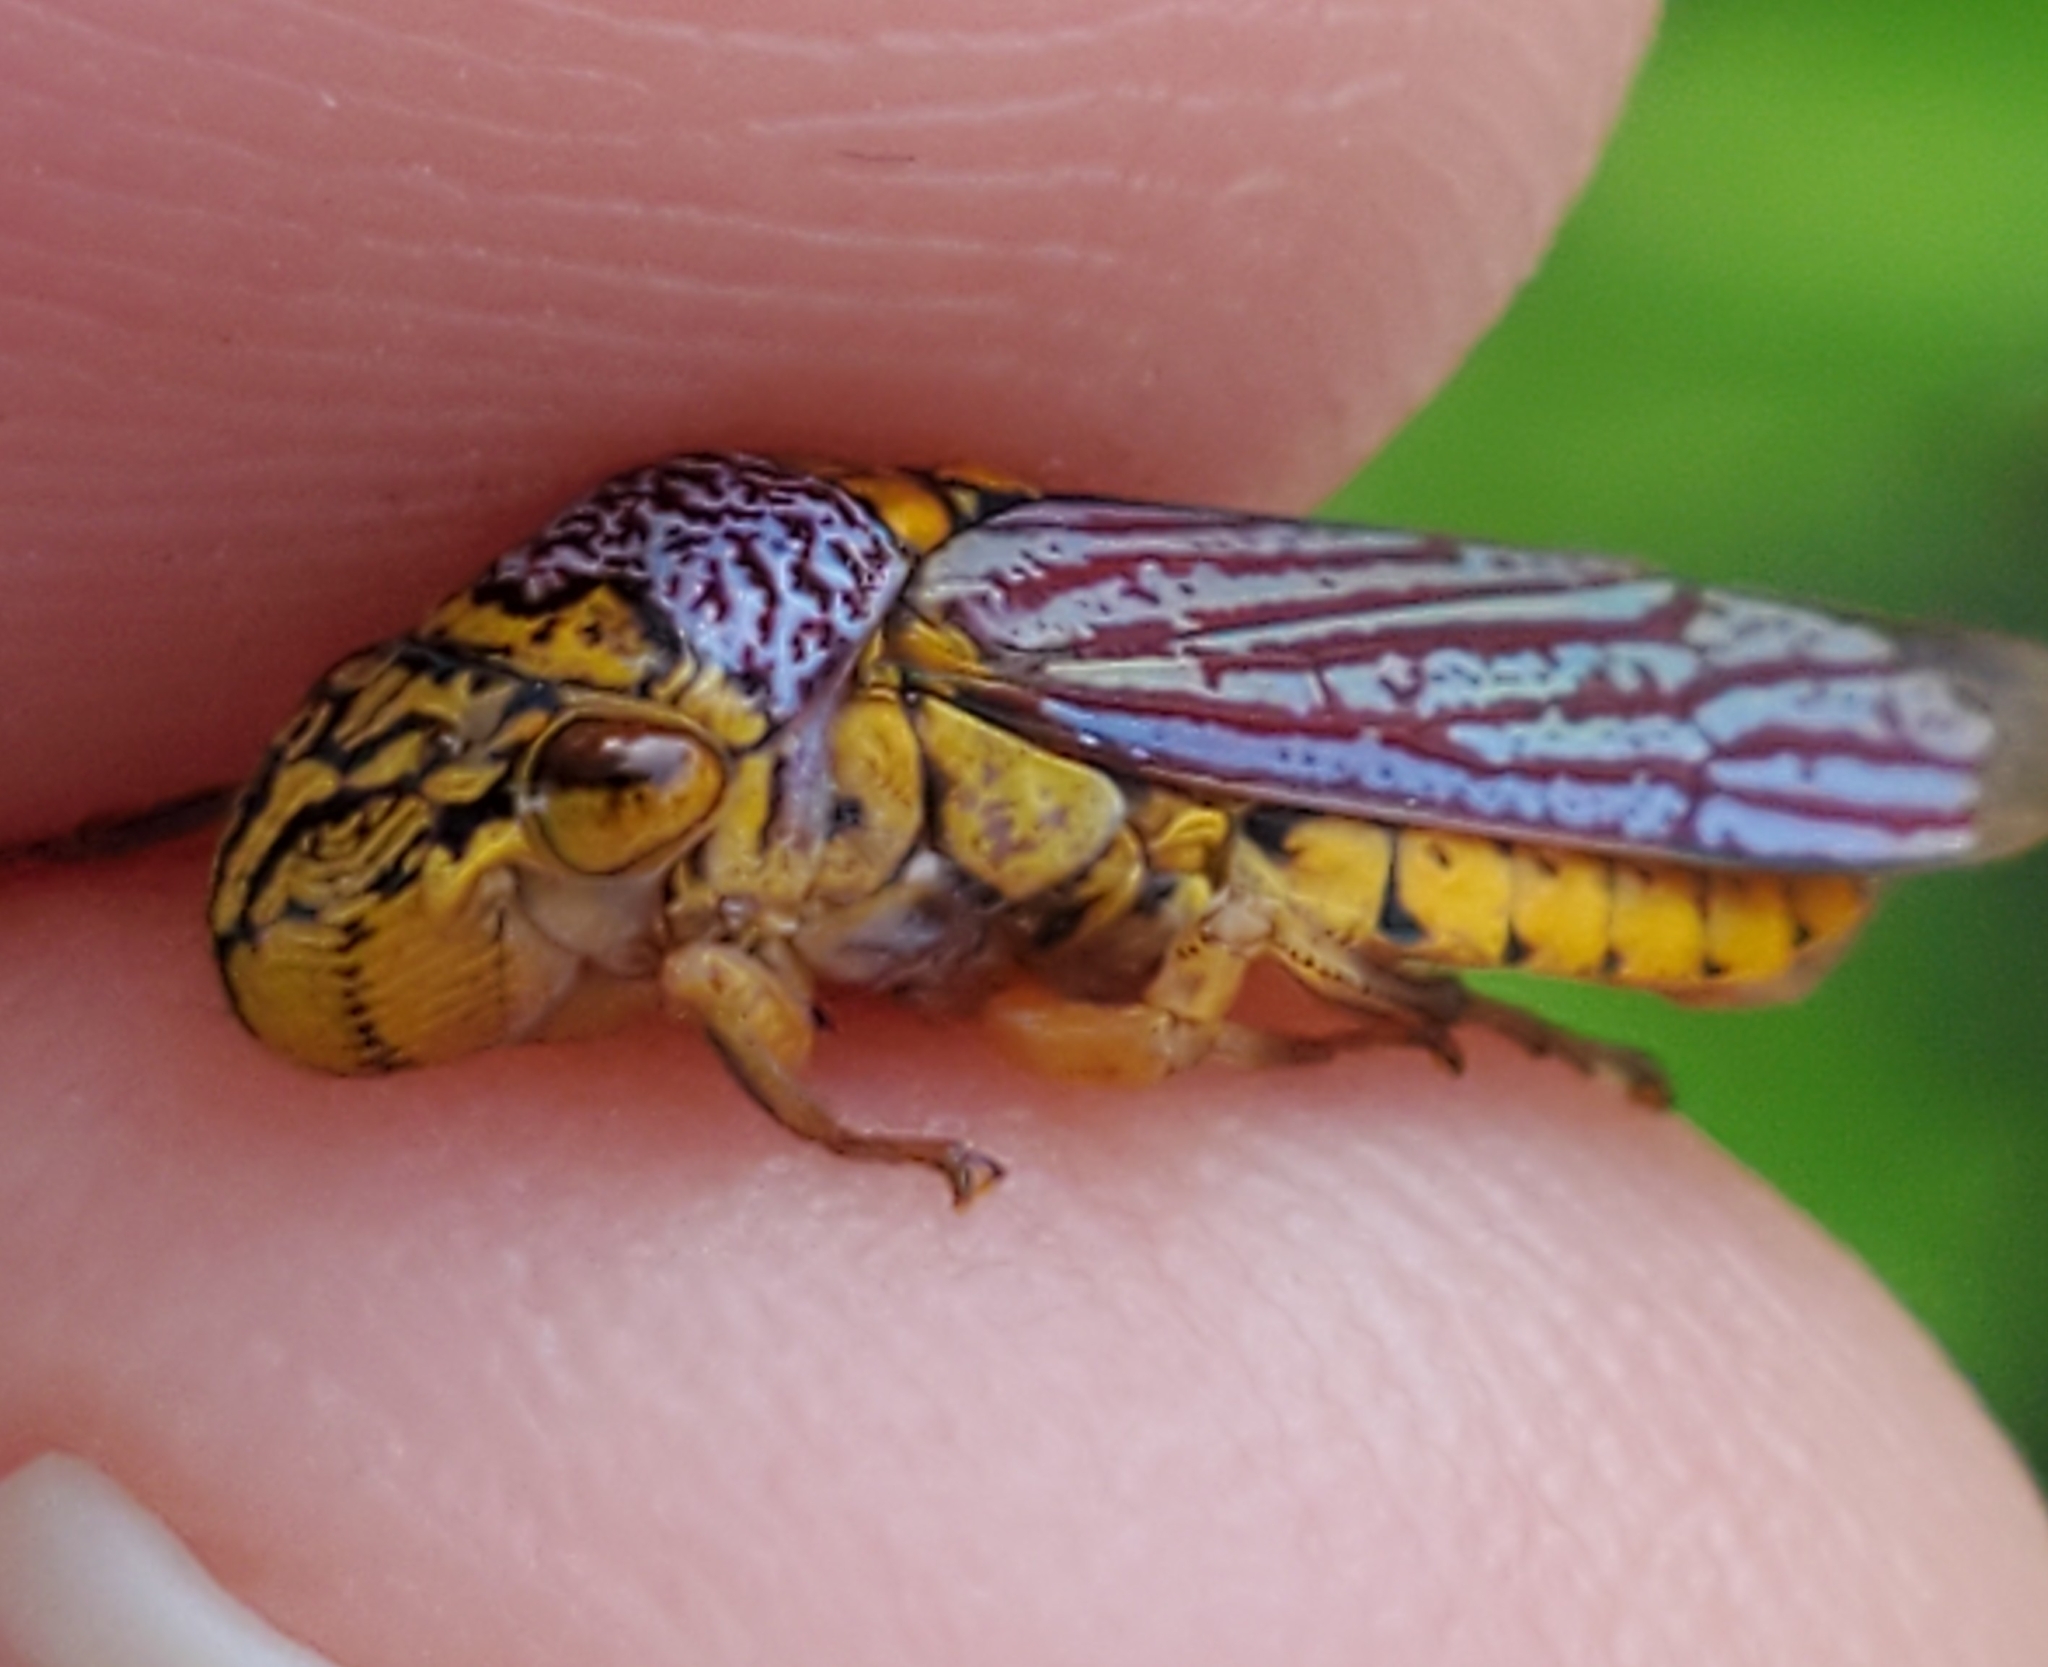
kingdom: Animalia
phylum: Arthropoda
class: Insecta
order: Hemiptera
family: Cicadellidae
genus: Oncometopia
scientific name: Oncometopia nigricans
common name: Black-winged sharpshooter
